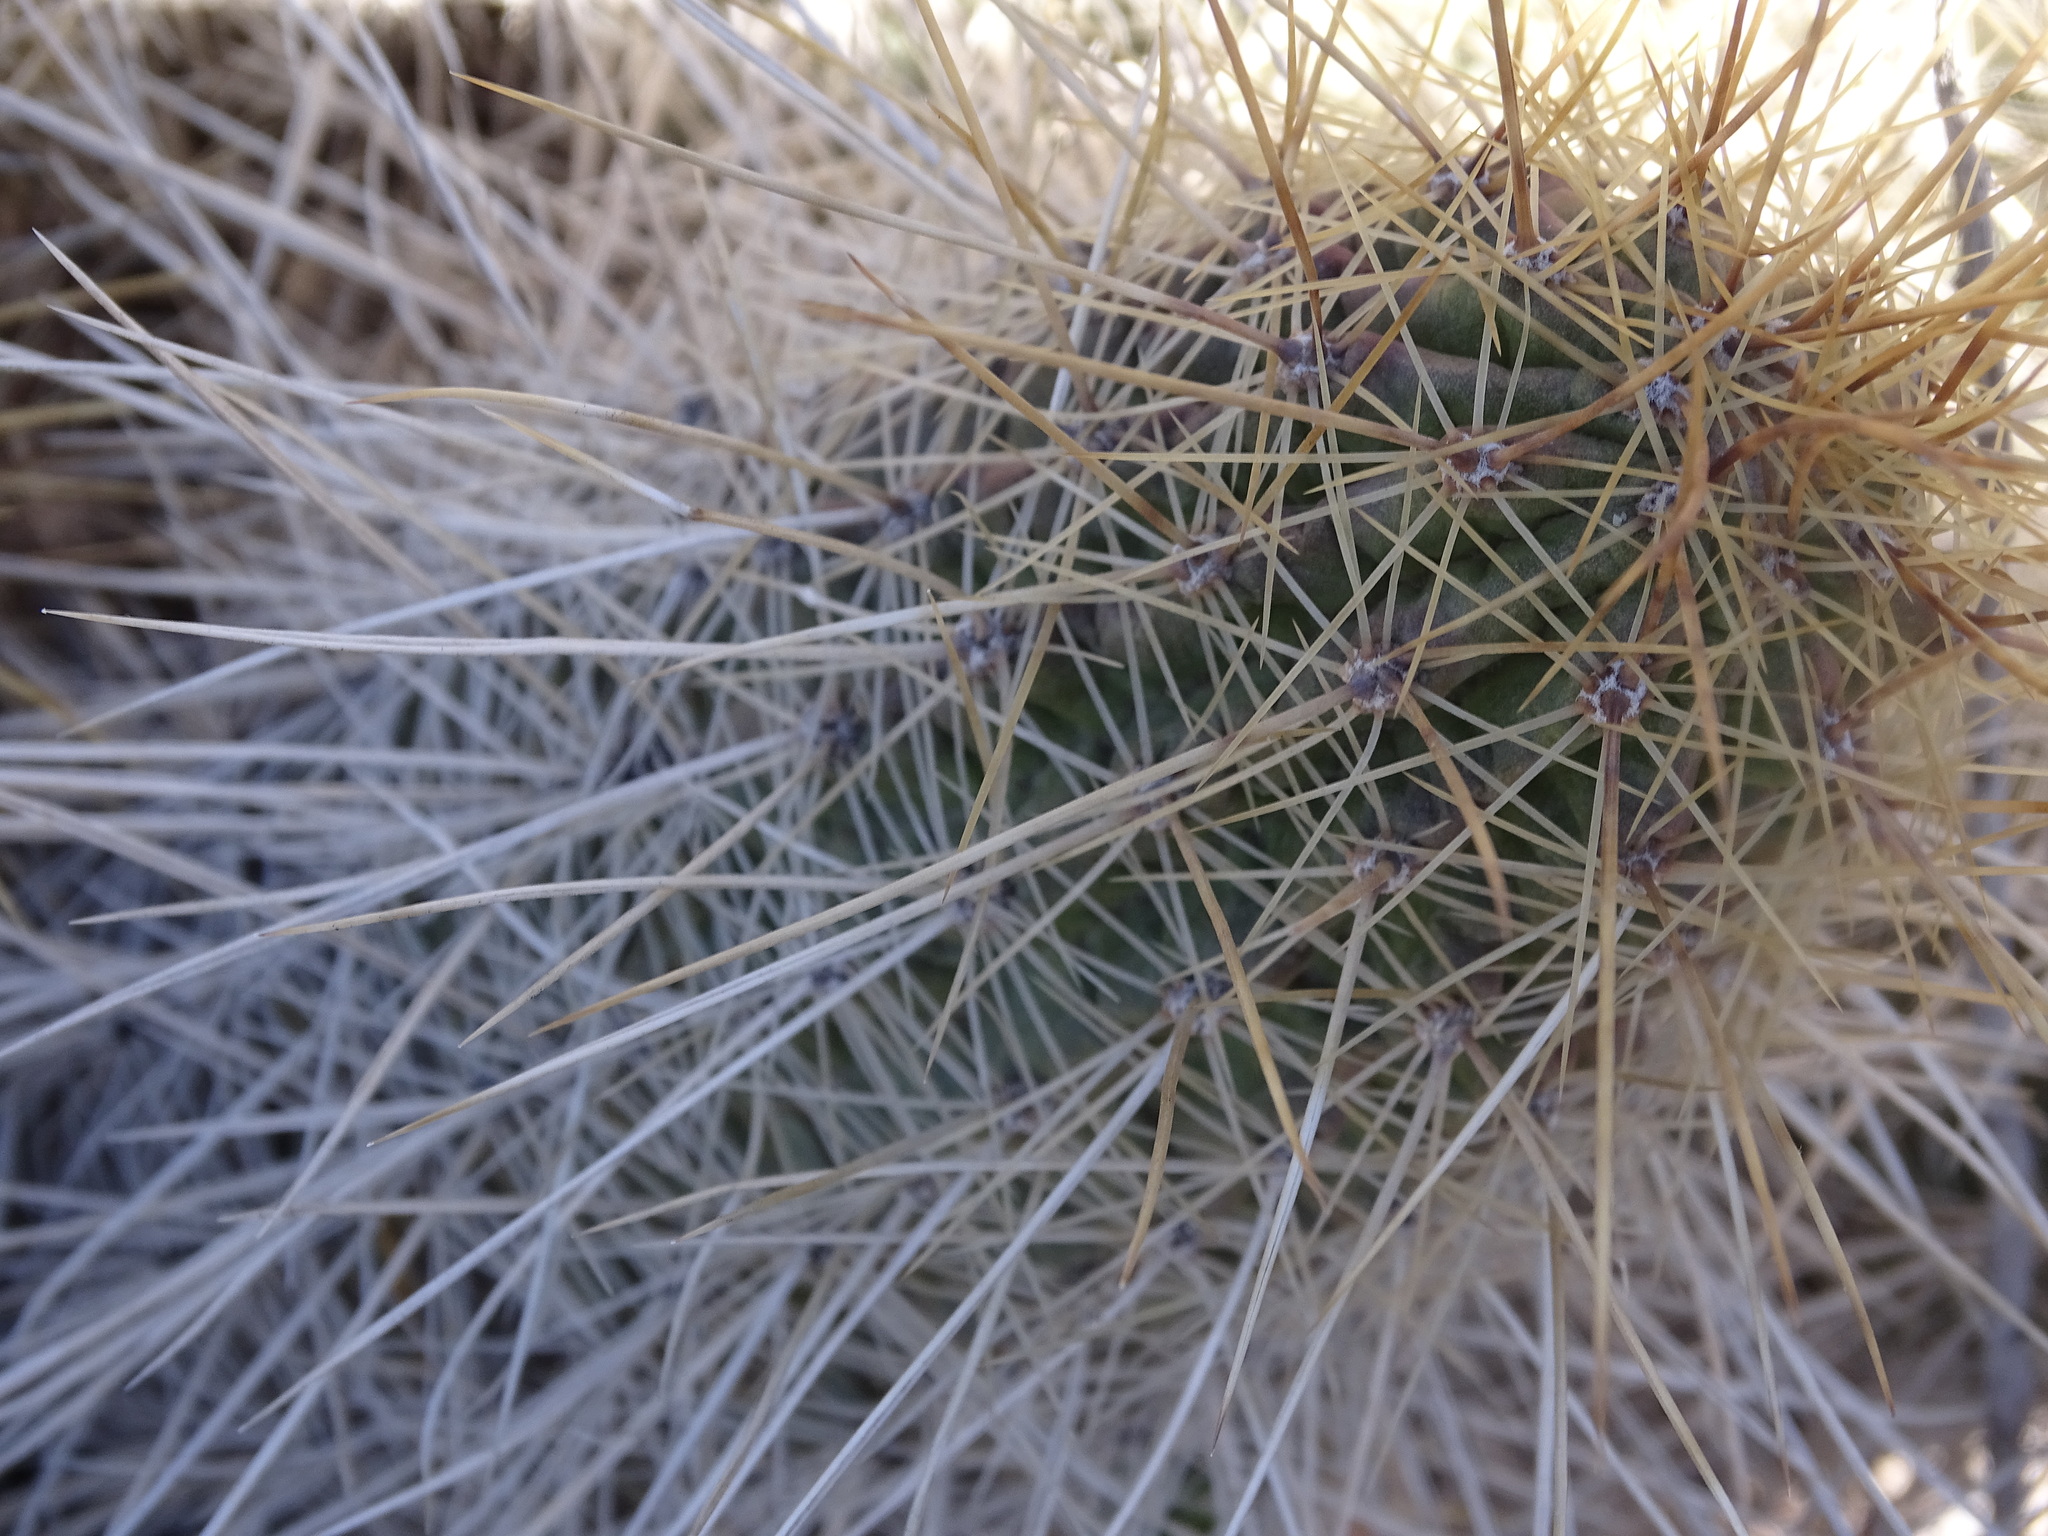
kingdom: Plantae
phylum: Tracheophyta
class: Magnoliopsida
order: Caryophyllales
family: Cactaceae
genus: Echinocereus
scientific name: Echinocereus stramineus
